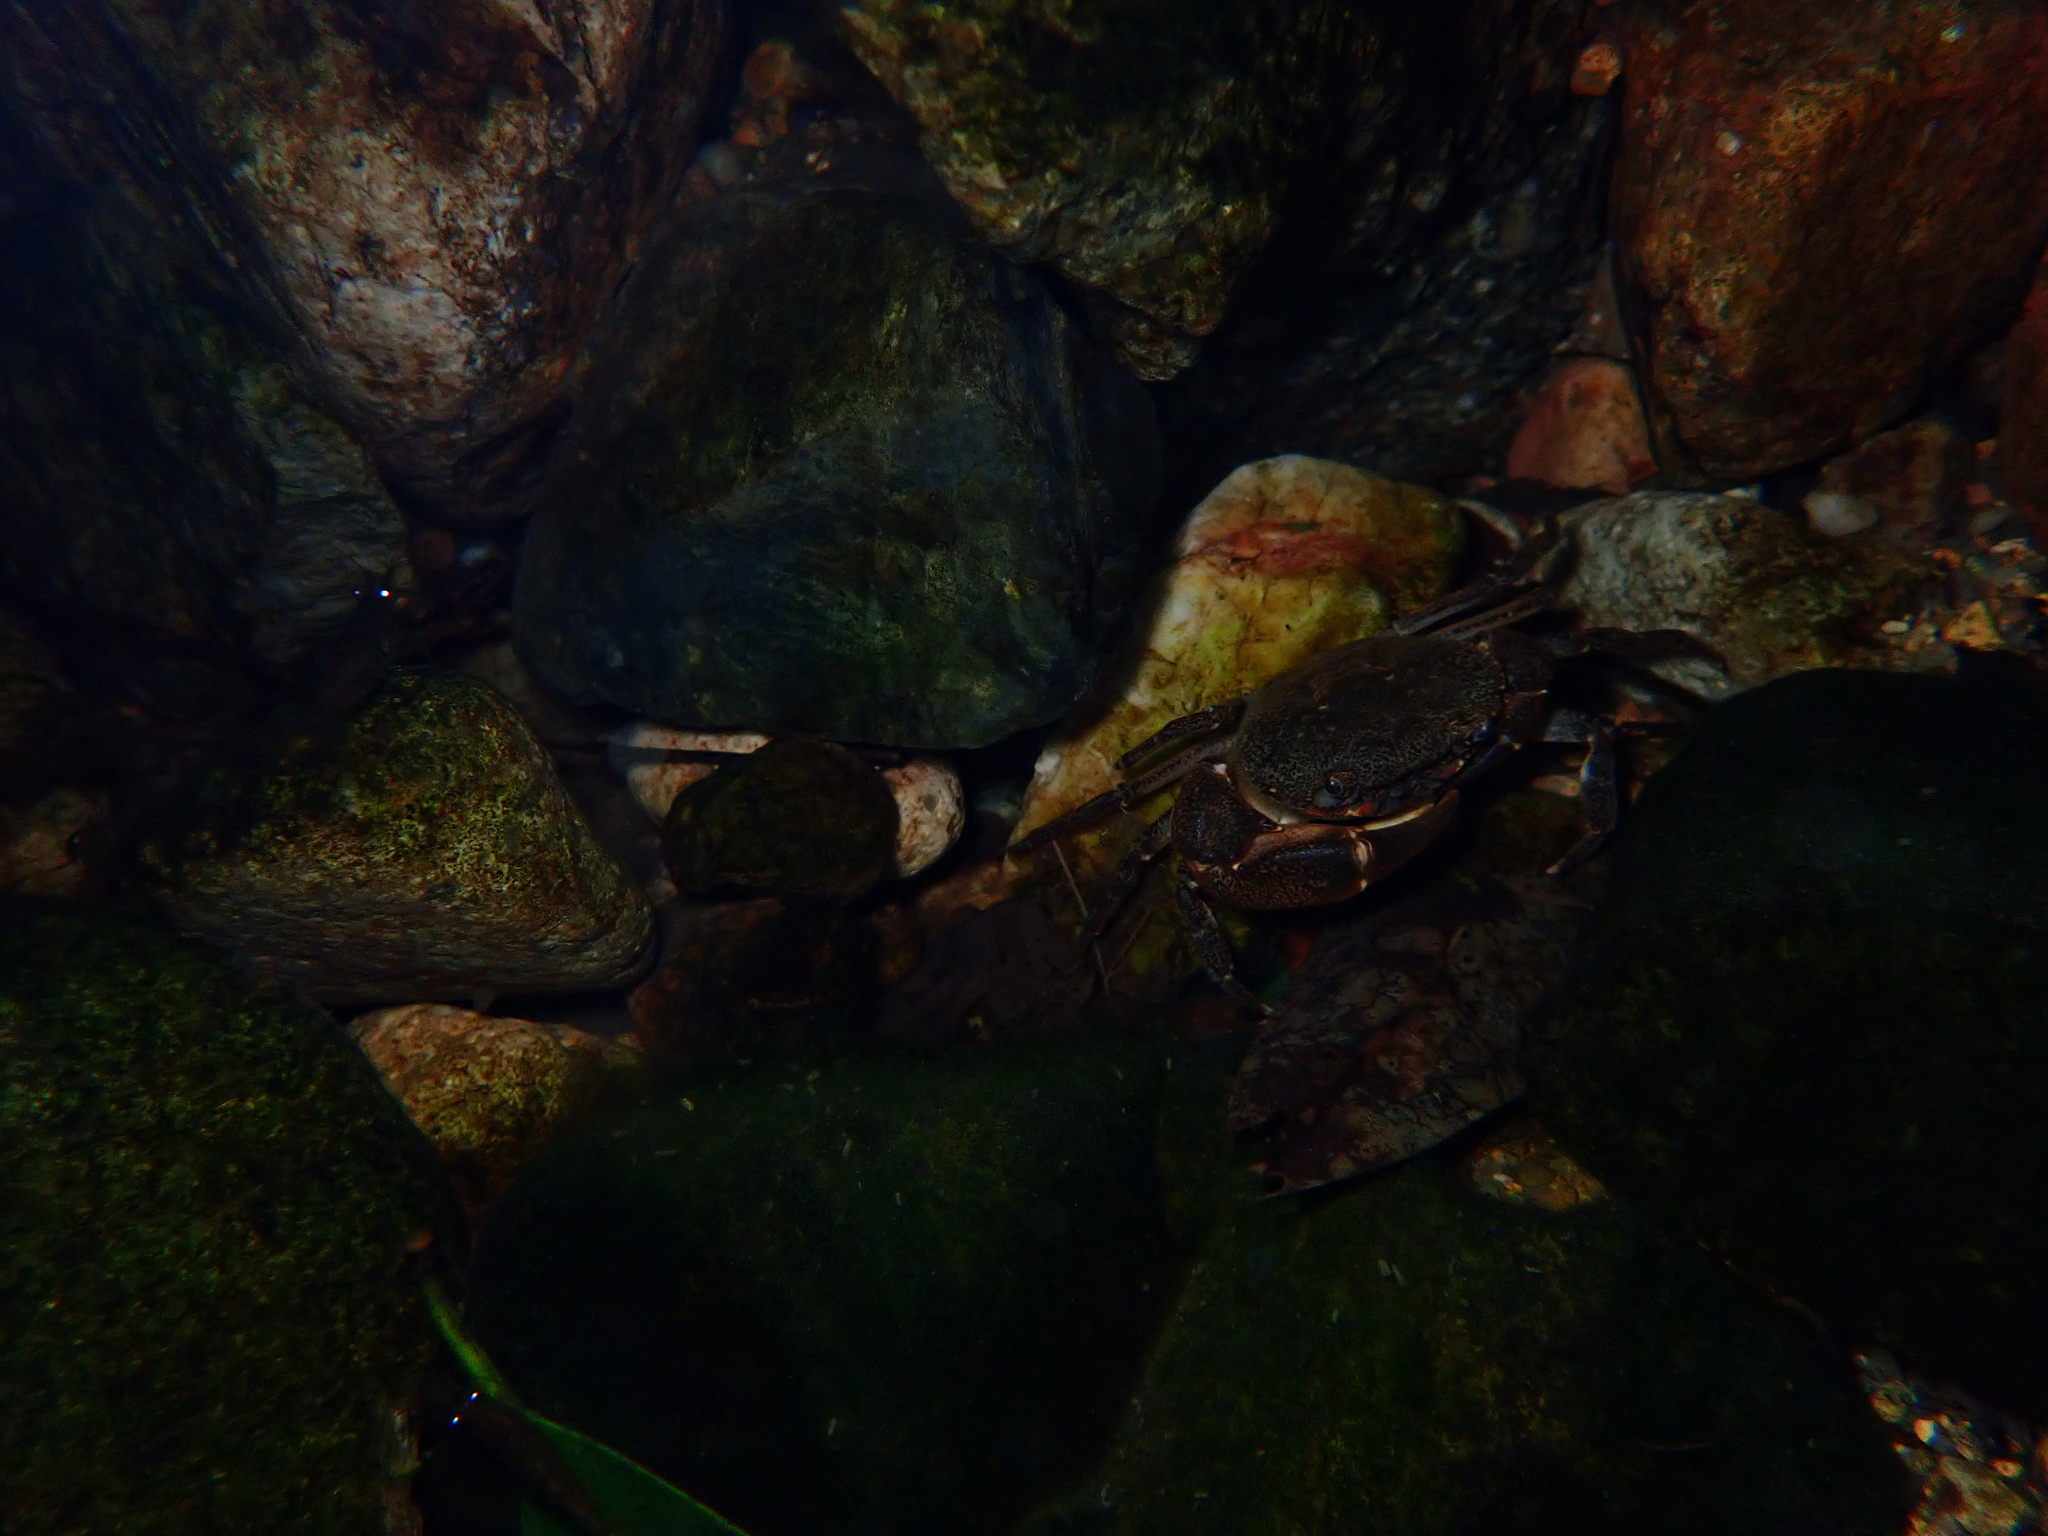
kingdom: Animalia
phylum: Arthropoda
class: Malacostraca
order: Decapoda
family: Potamidae
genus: Sinolapotamon
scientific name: Sinolapotamon anacoluthon
